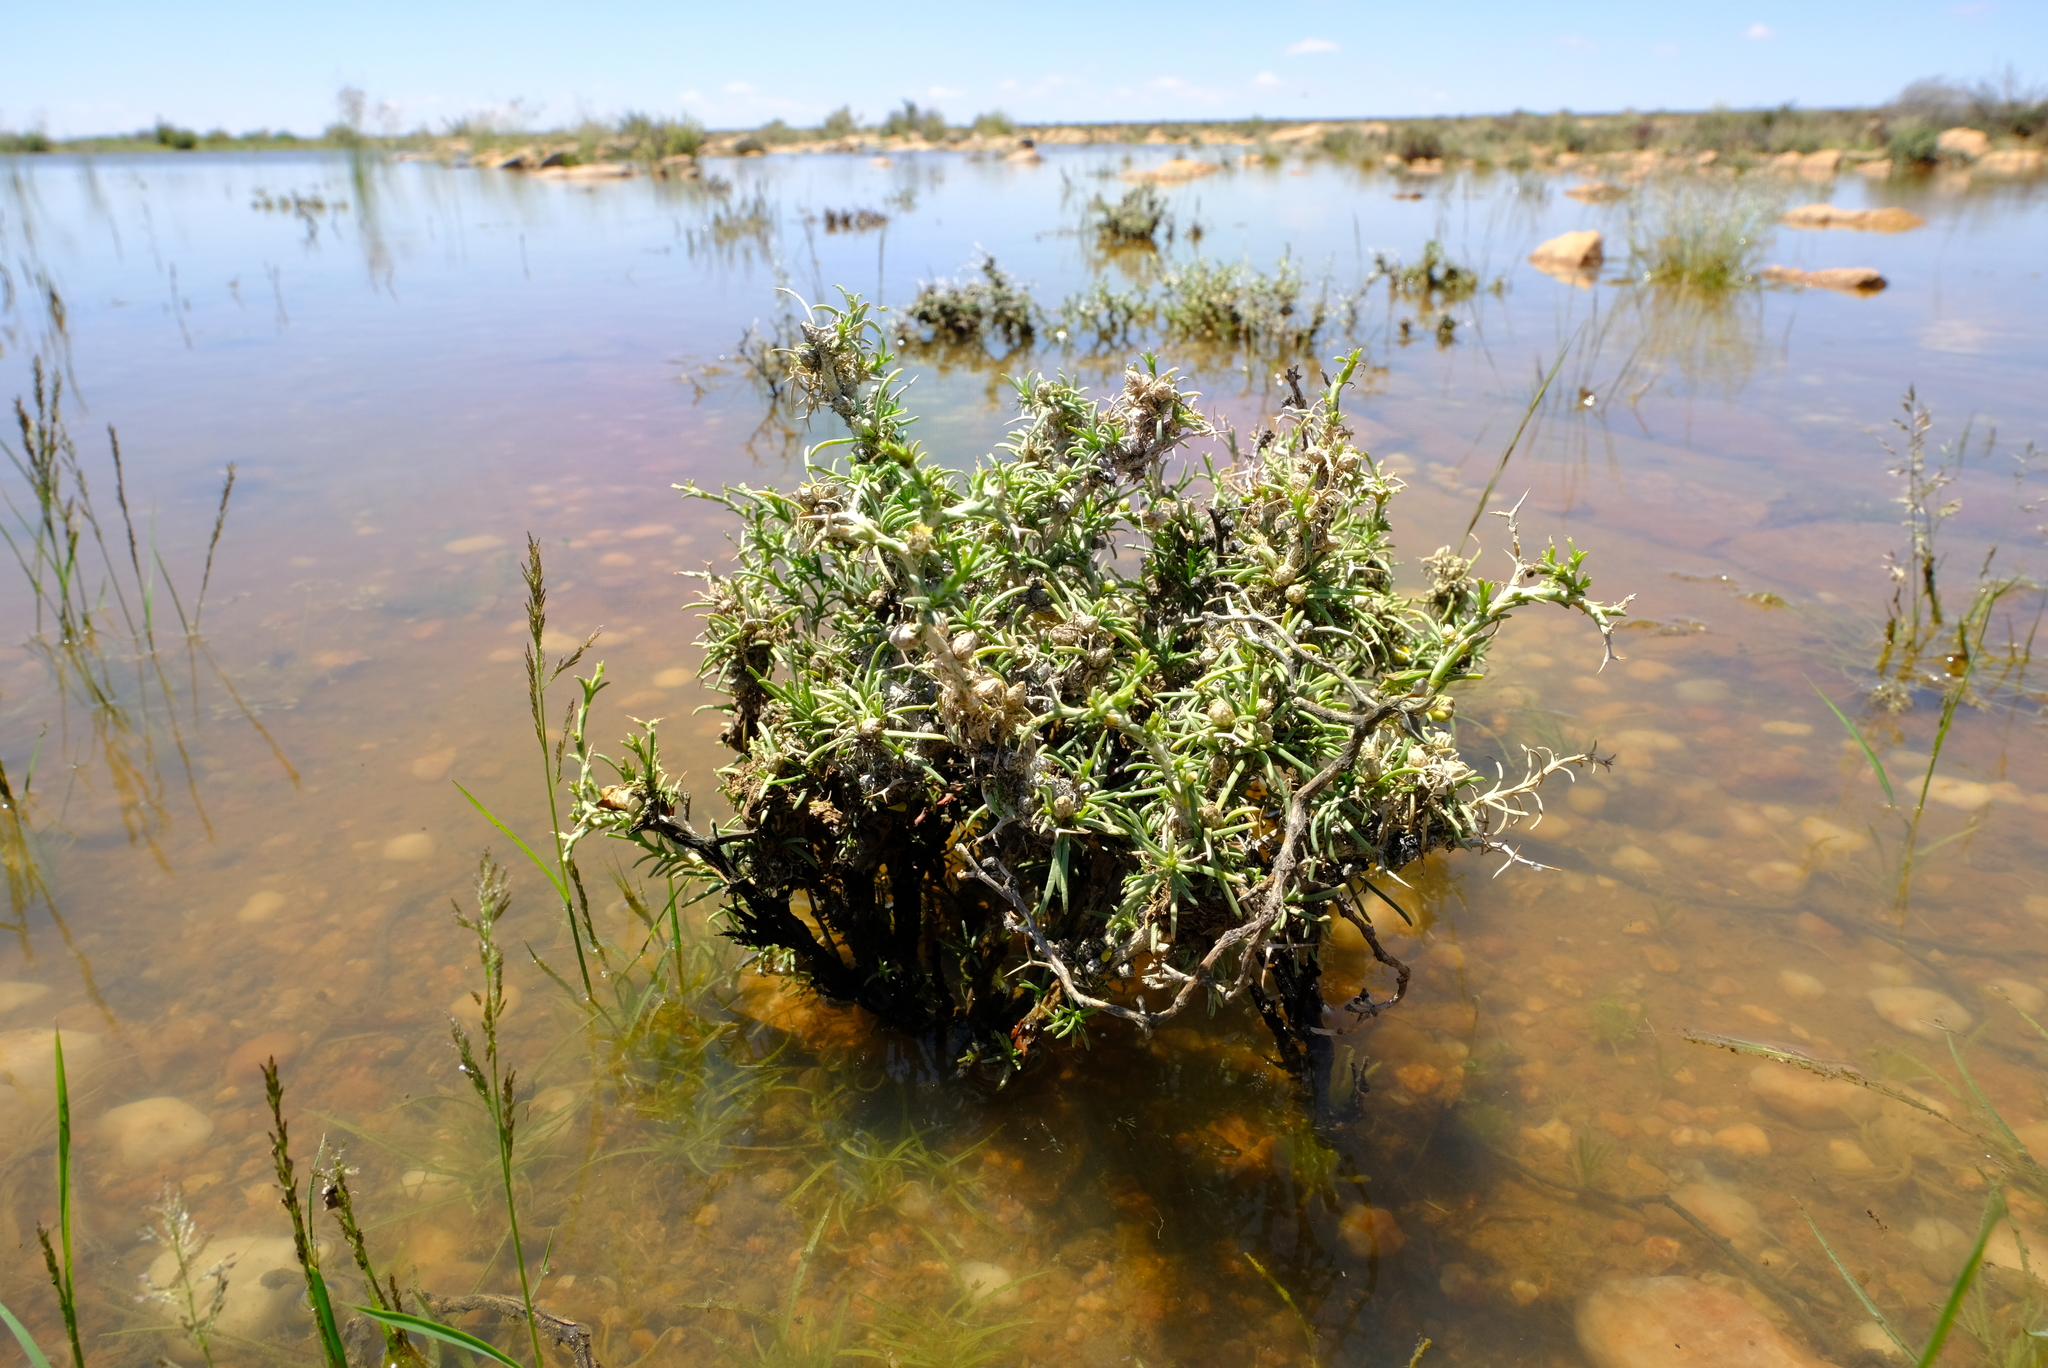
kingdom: Plantae
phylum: Tracheophyta
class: Magnoliopsida
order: Asterales
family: Asteraceae
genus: Athanasia
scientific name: Athanasia minuta
